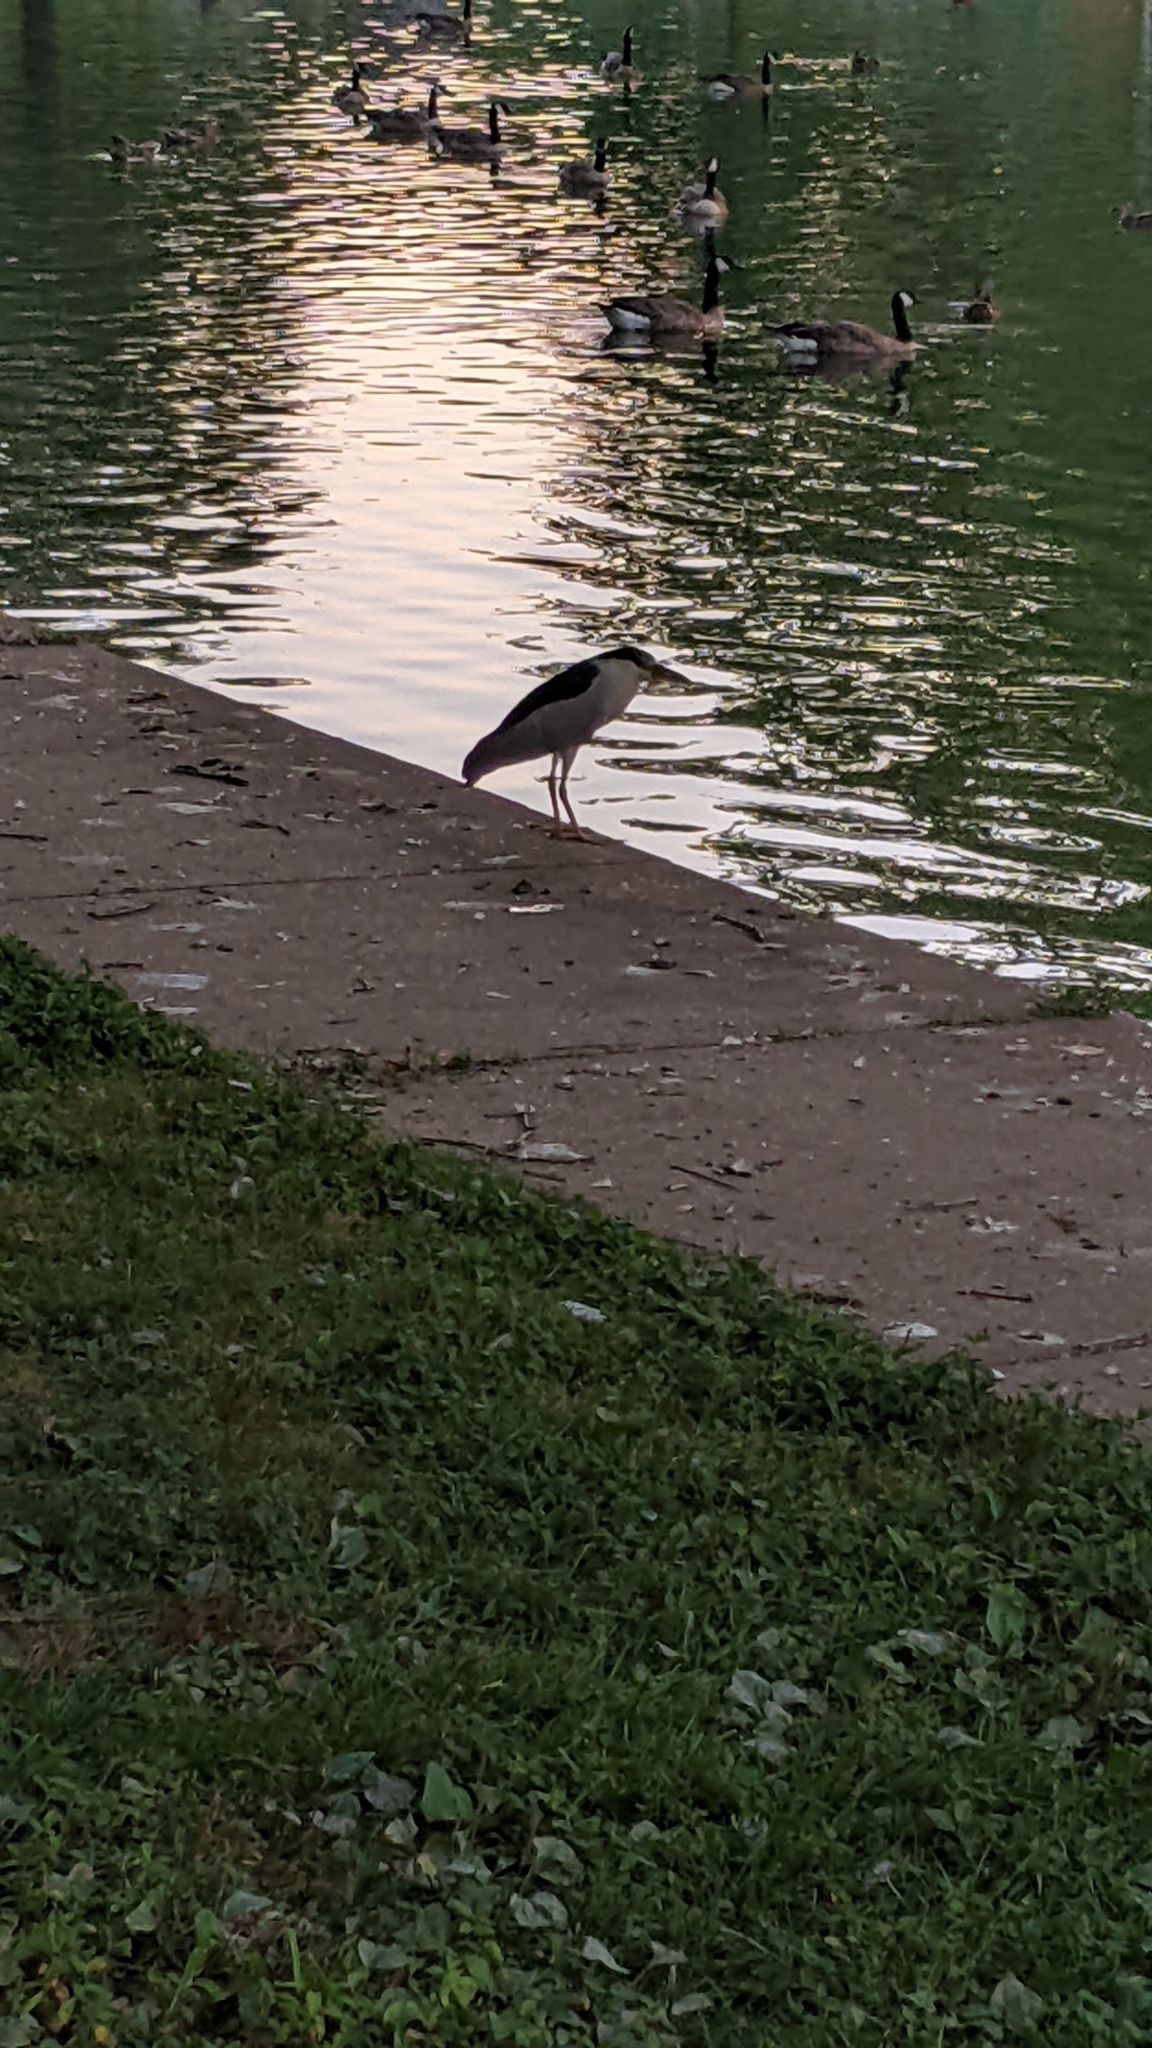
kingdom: Animalia
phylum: Chordata
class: Aves
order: Pelecaniformes
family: Ardeidae
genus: Nycticorax
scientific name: Nycticorax nycticorax
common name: Black-crowned night heron
